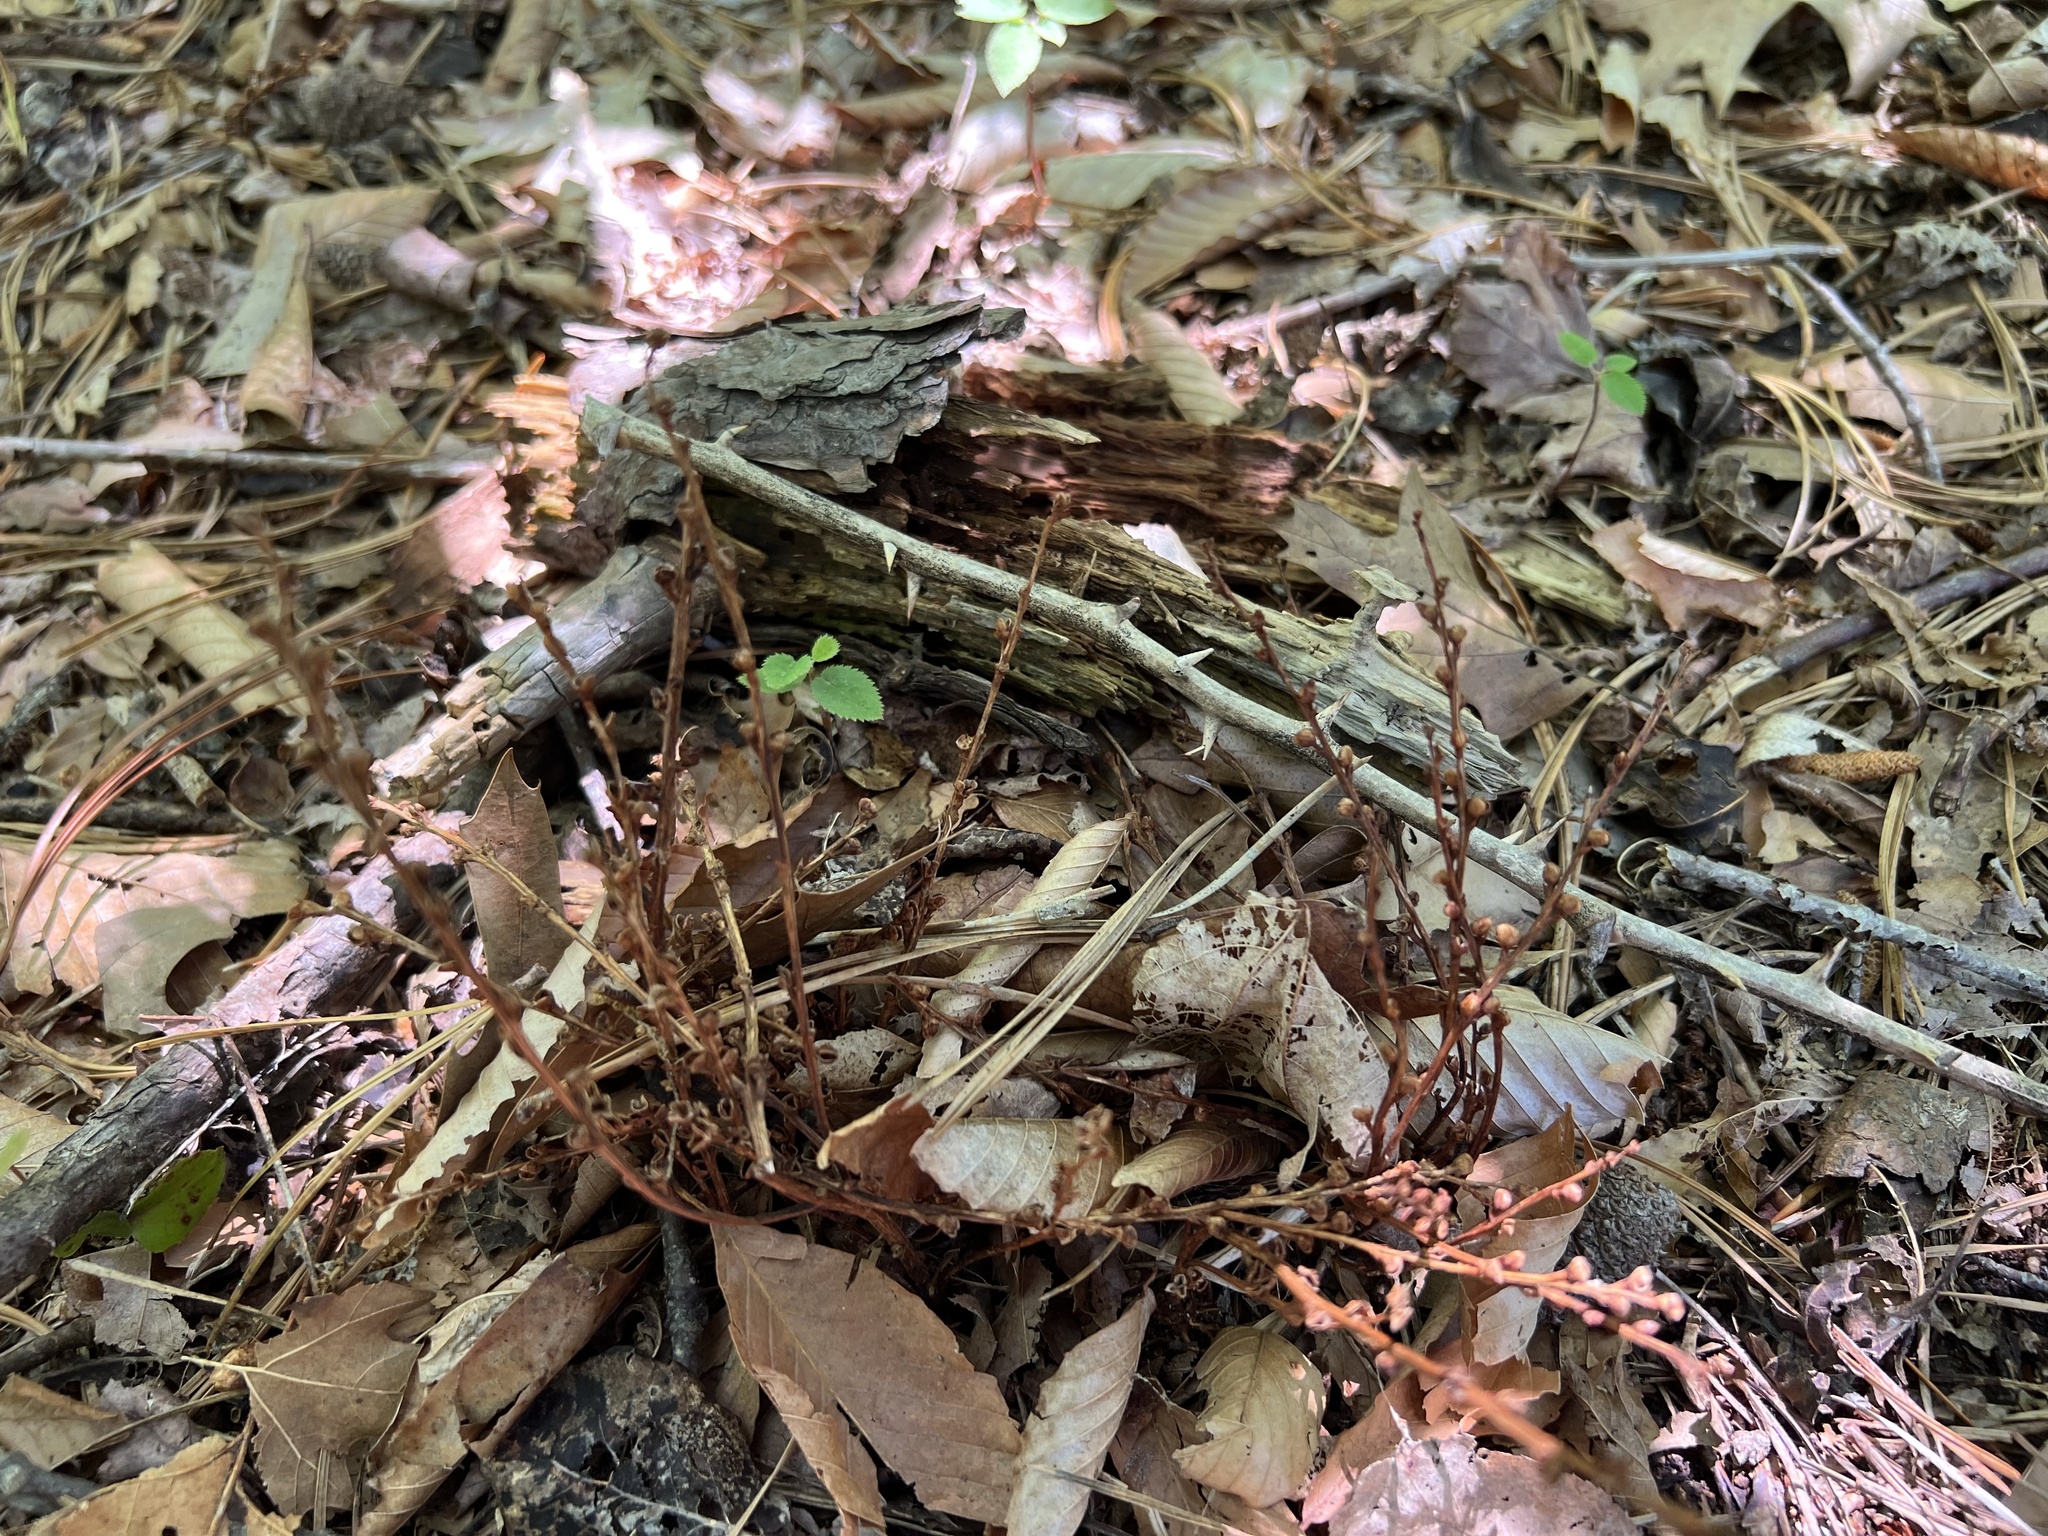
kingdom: Plantae
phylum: Tracheophyta
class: Magnoliopsida
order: Lamiales
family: Orobanchaceae
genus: Epifagus
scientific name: Epifagus virginiana
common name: Beechdrops
